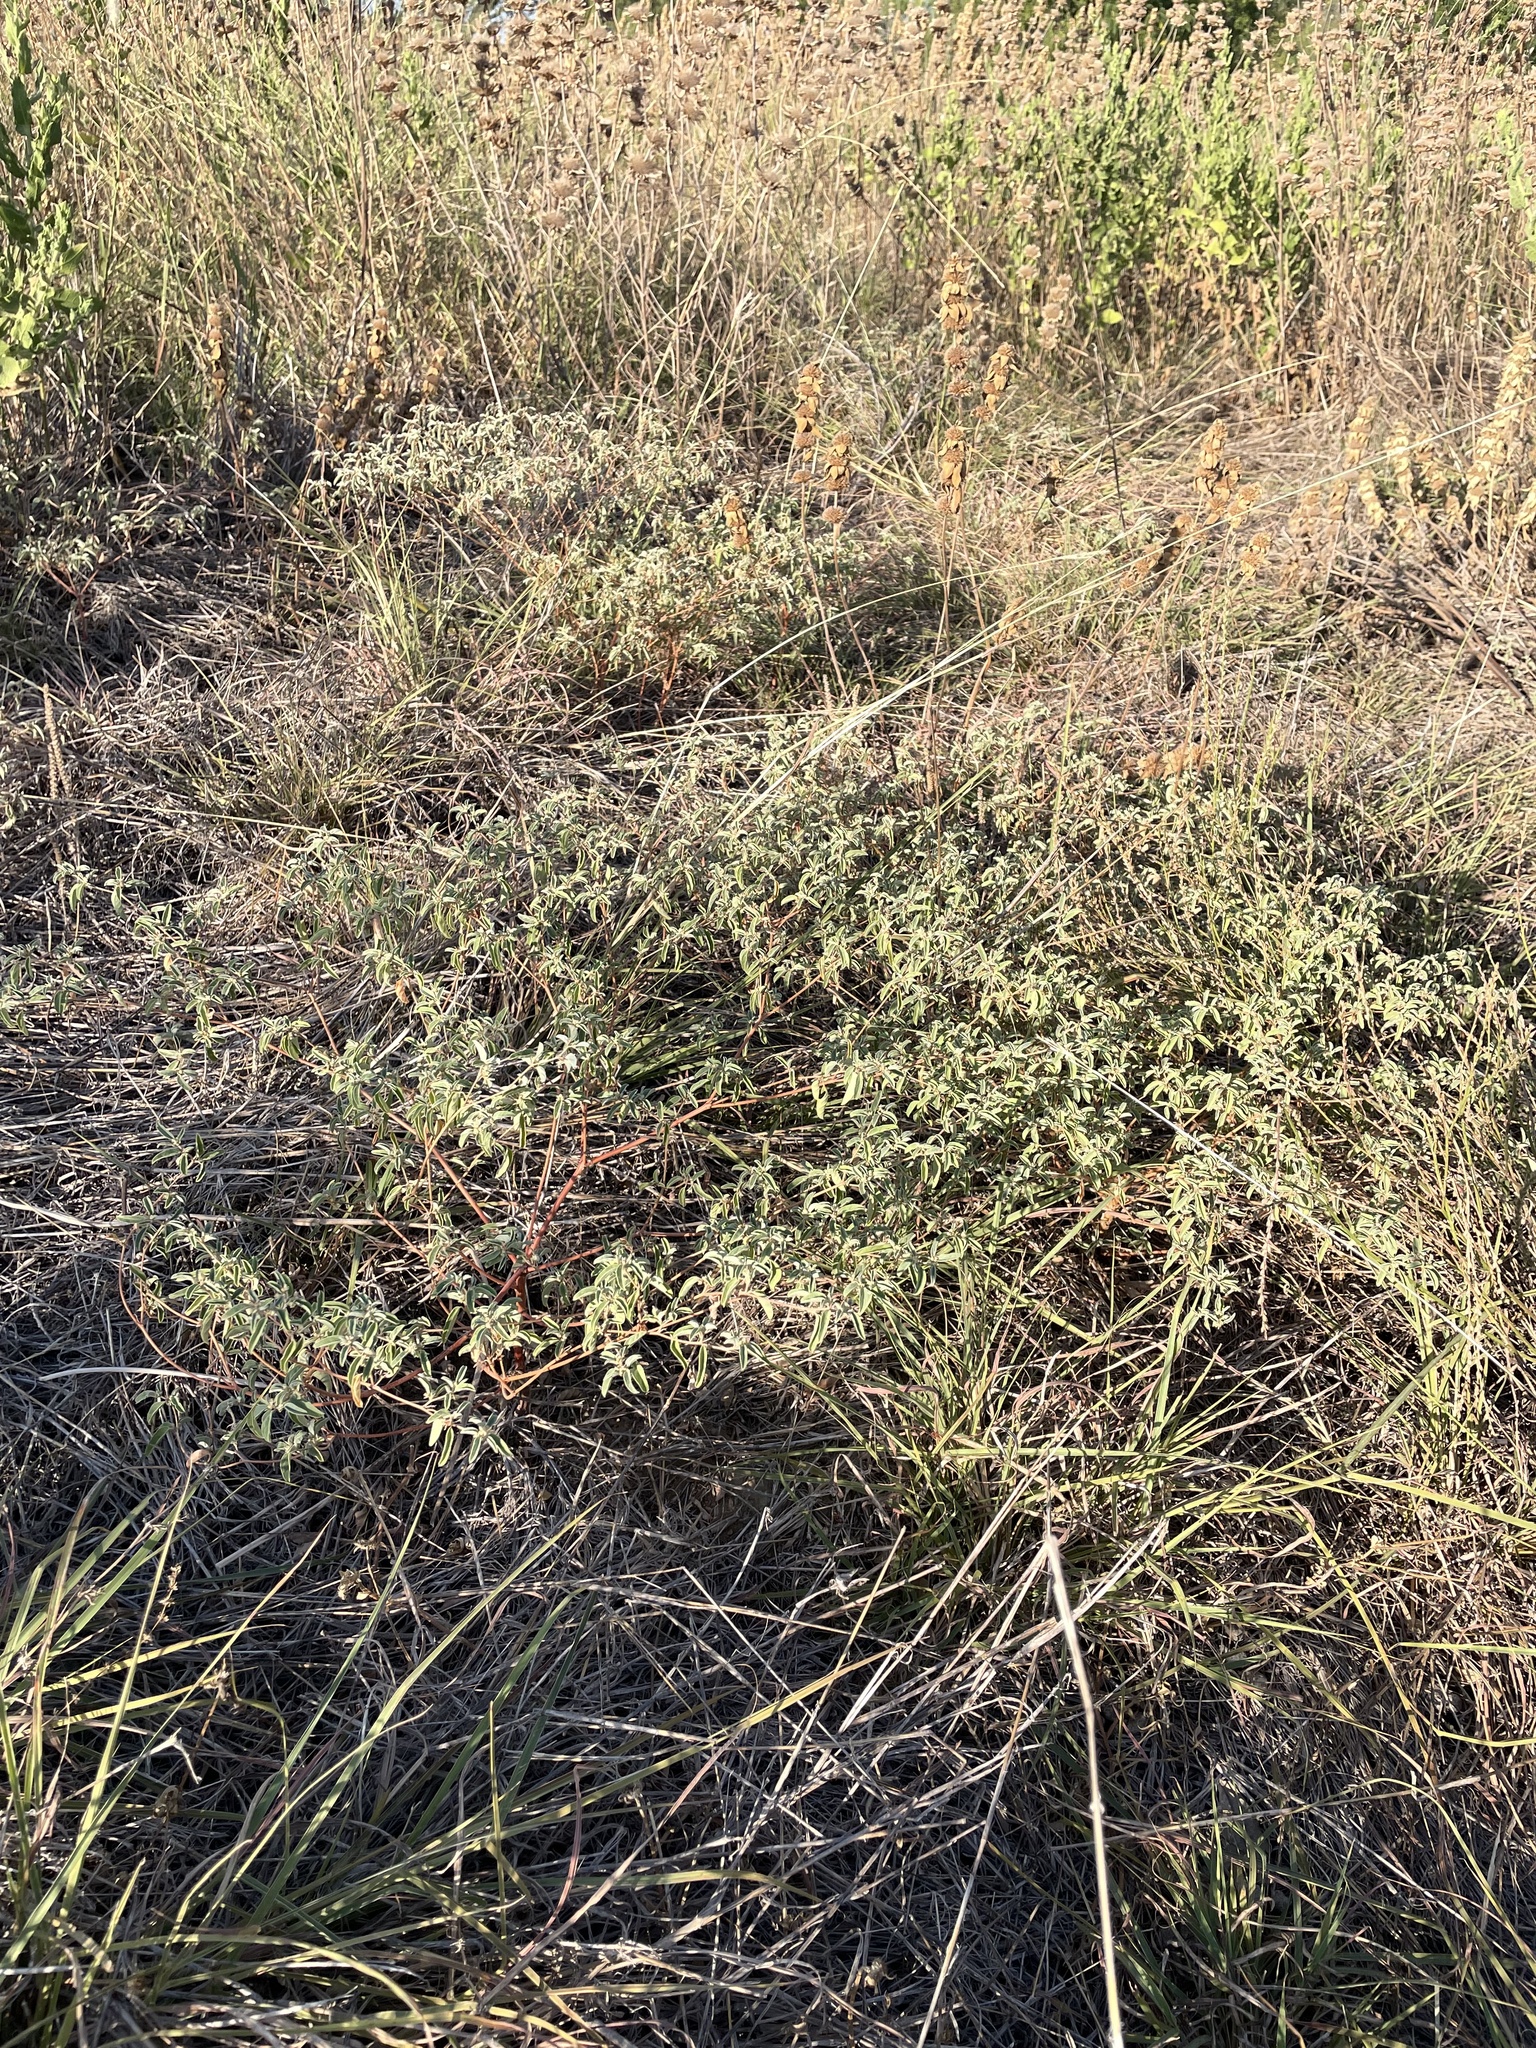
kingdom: Plantae
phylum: Tracheophyta
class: Magnoliopsida
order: Malpighiales
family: Euphorbiaceae
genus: Croton
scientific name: Croton monanthogynus
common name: One-seed croton
